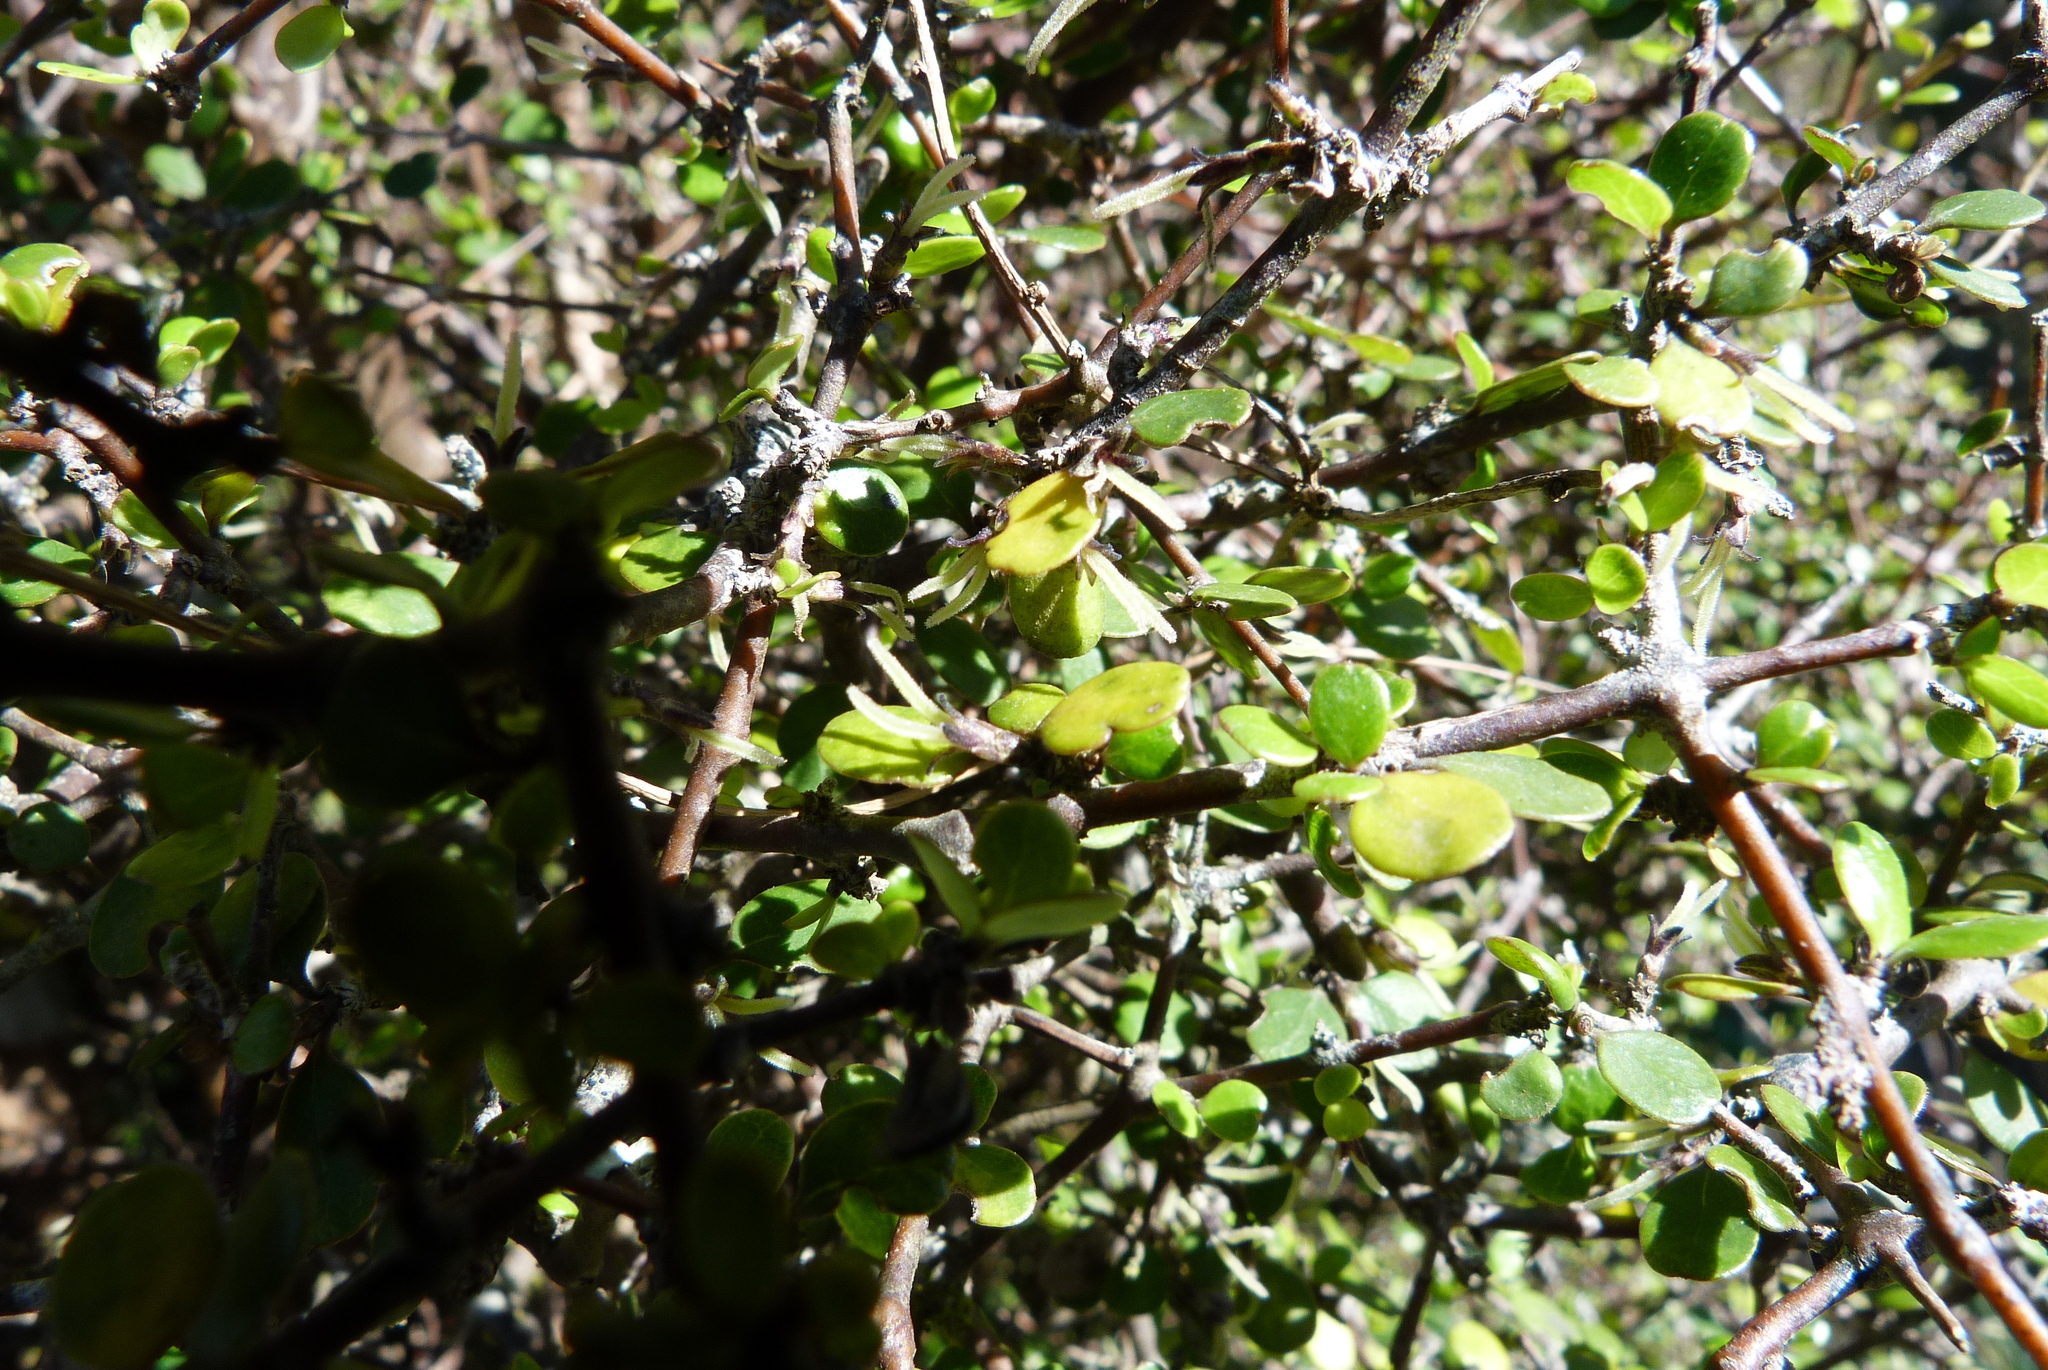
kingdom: Plantae
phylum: Tracheophyta
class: Magnoliopsida
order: Gentianales
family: Rubiaceae
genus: Coprosma
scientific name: Coprosma crassifolia
